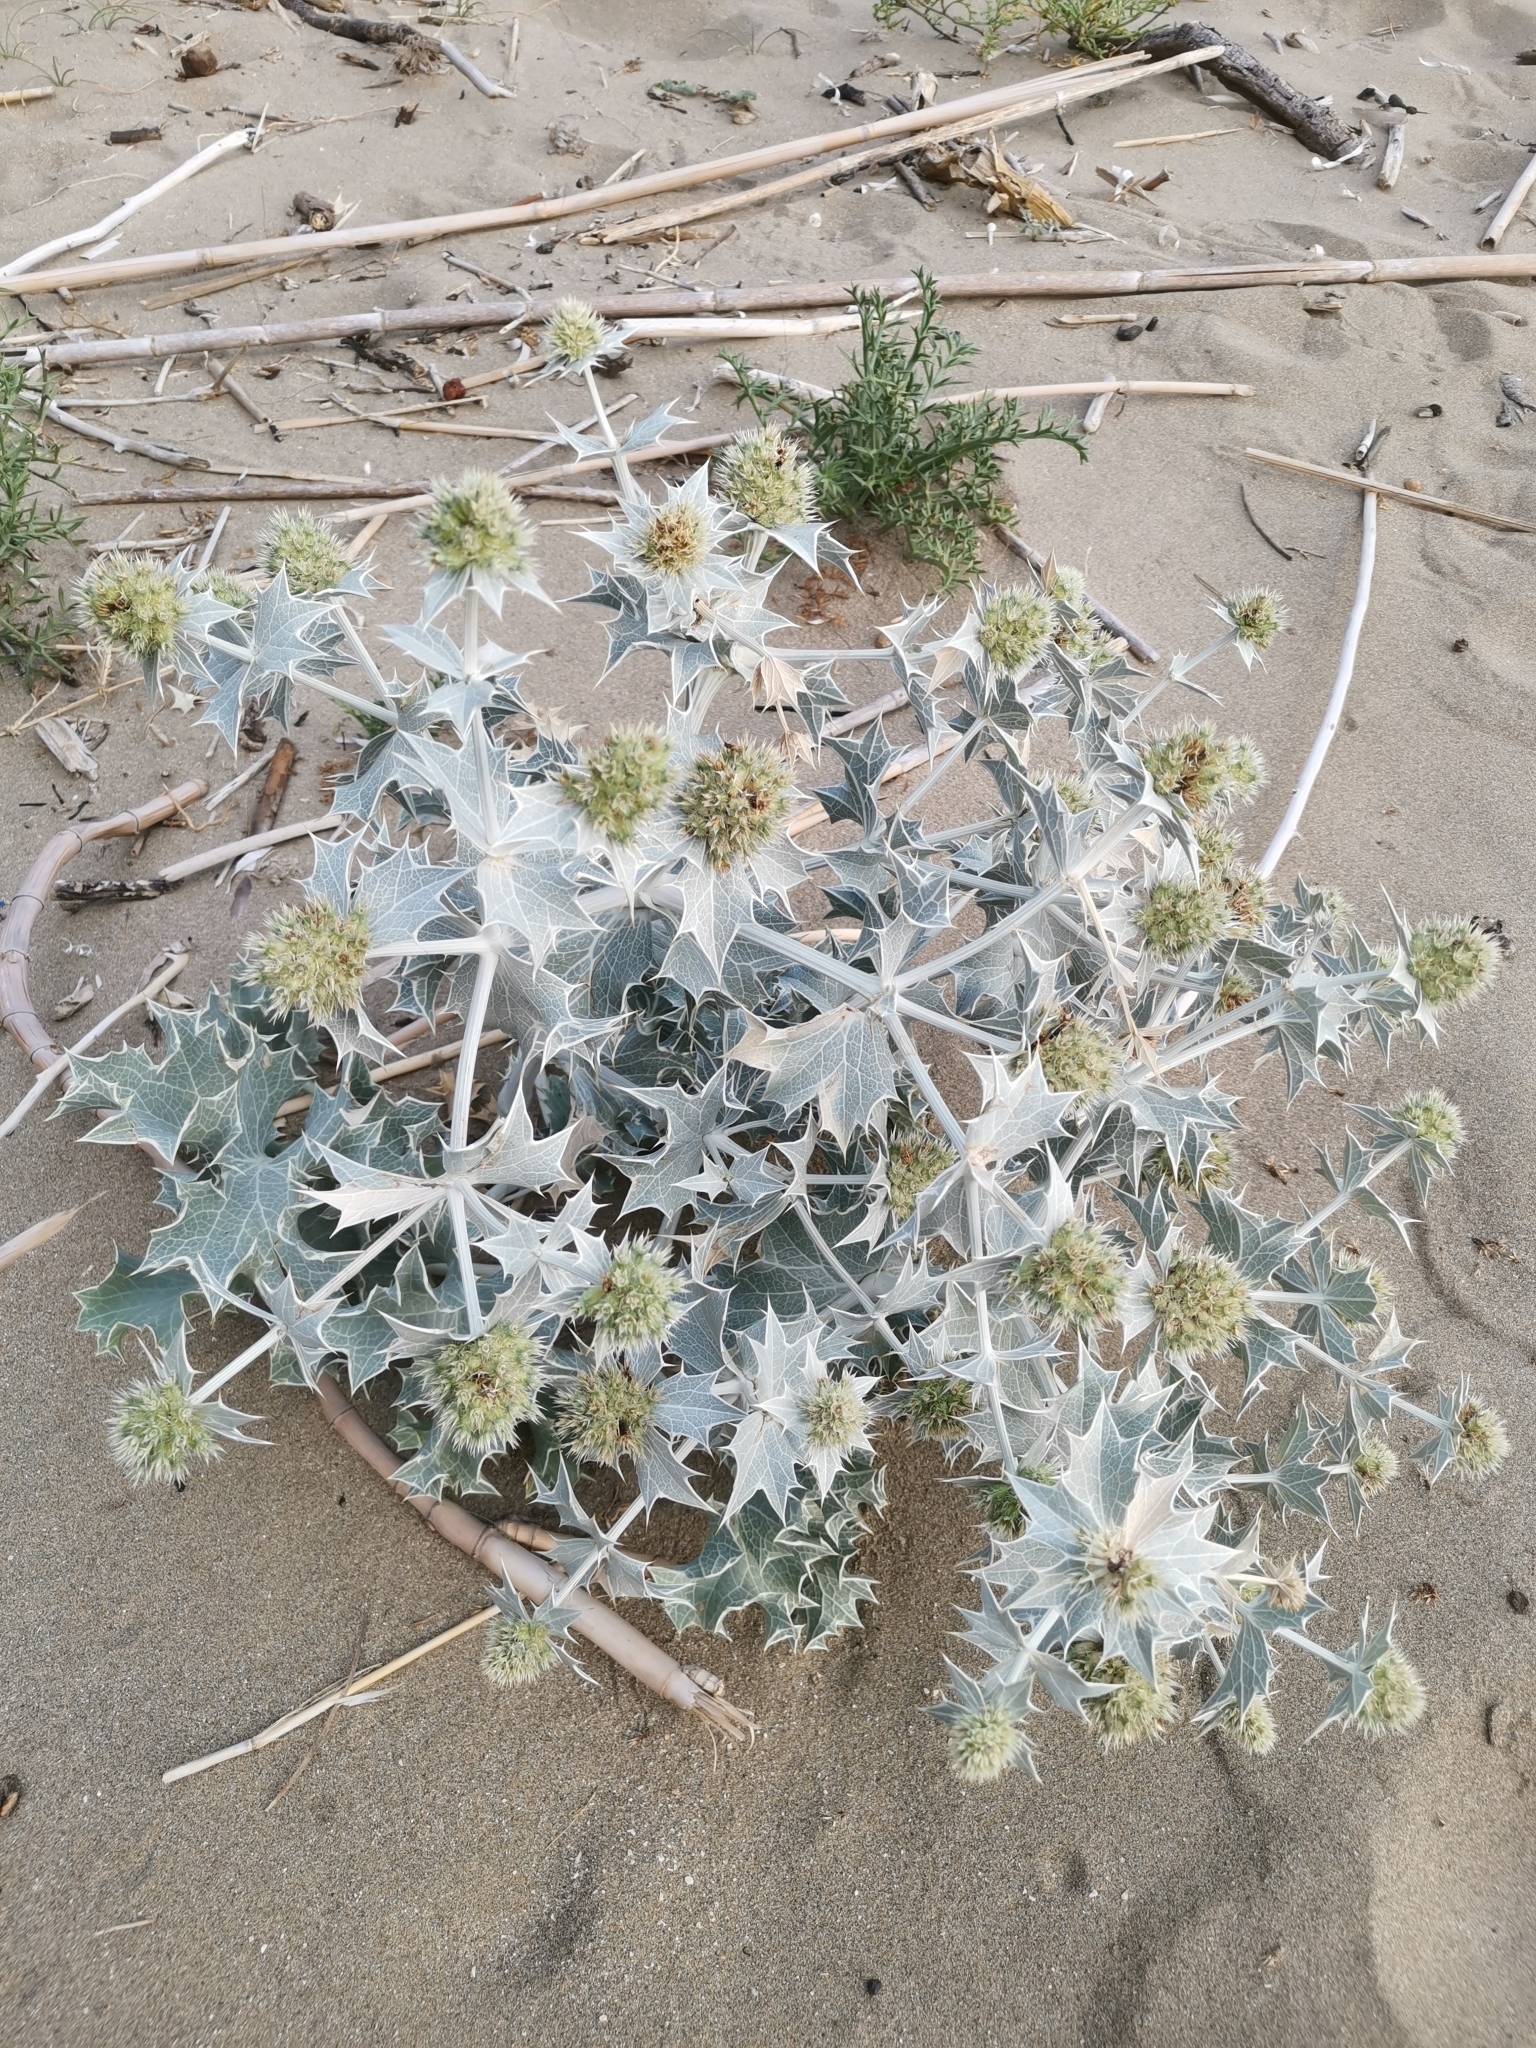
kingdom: Plantae
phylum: Tracheophyta
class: Magnoliopsida
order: Apiales
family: Apiaceae
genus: Eryngium
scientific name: Eryngium maritimum
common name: Sea-holly
